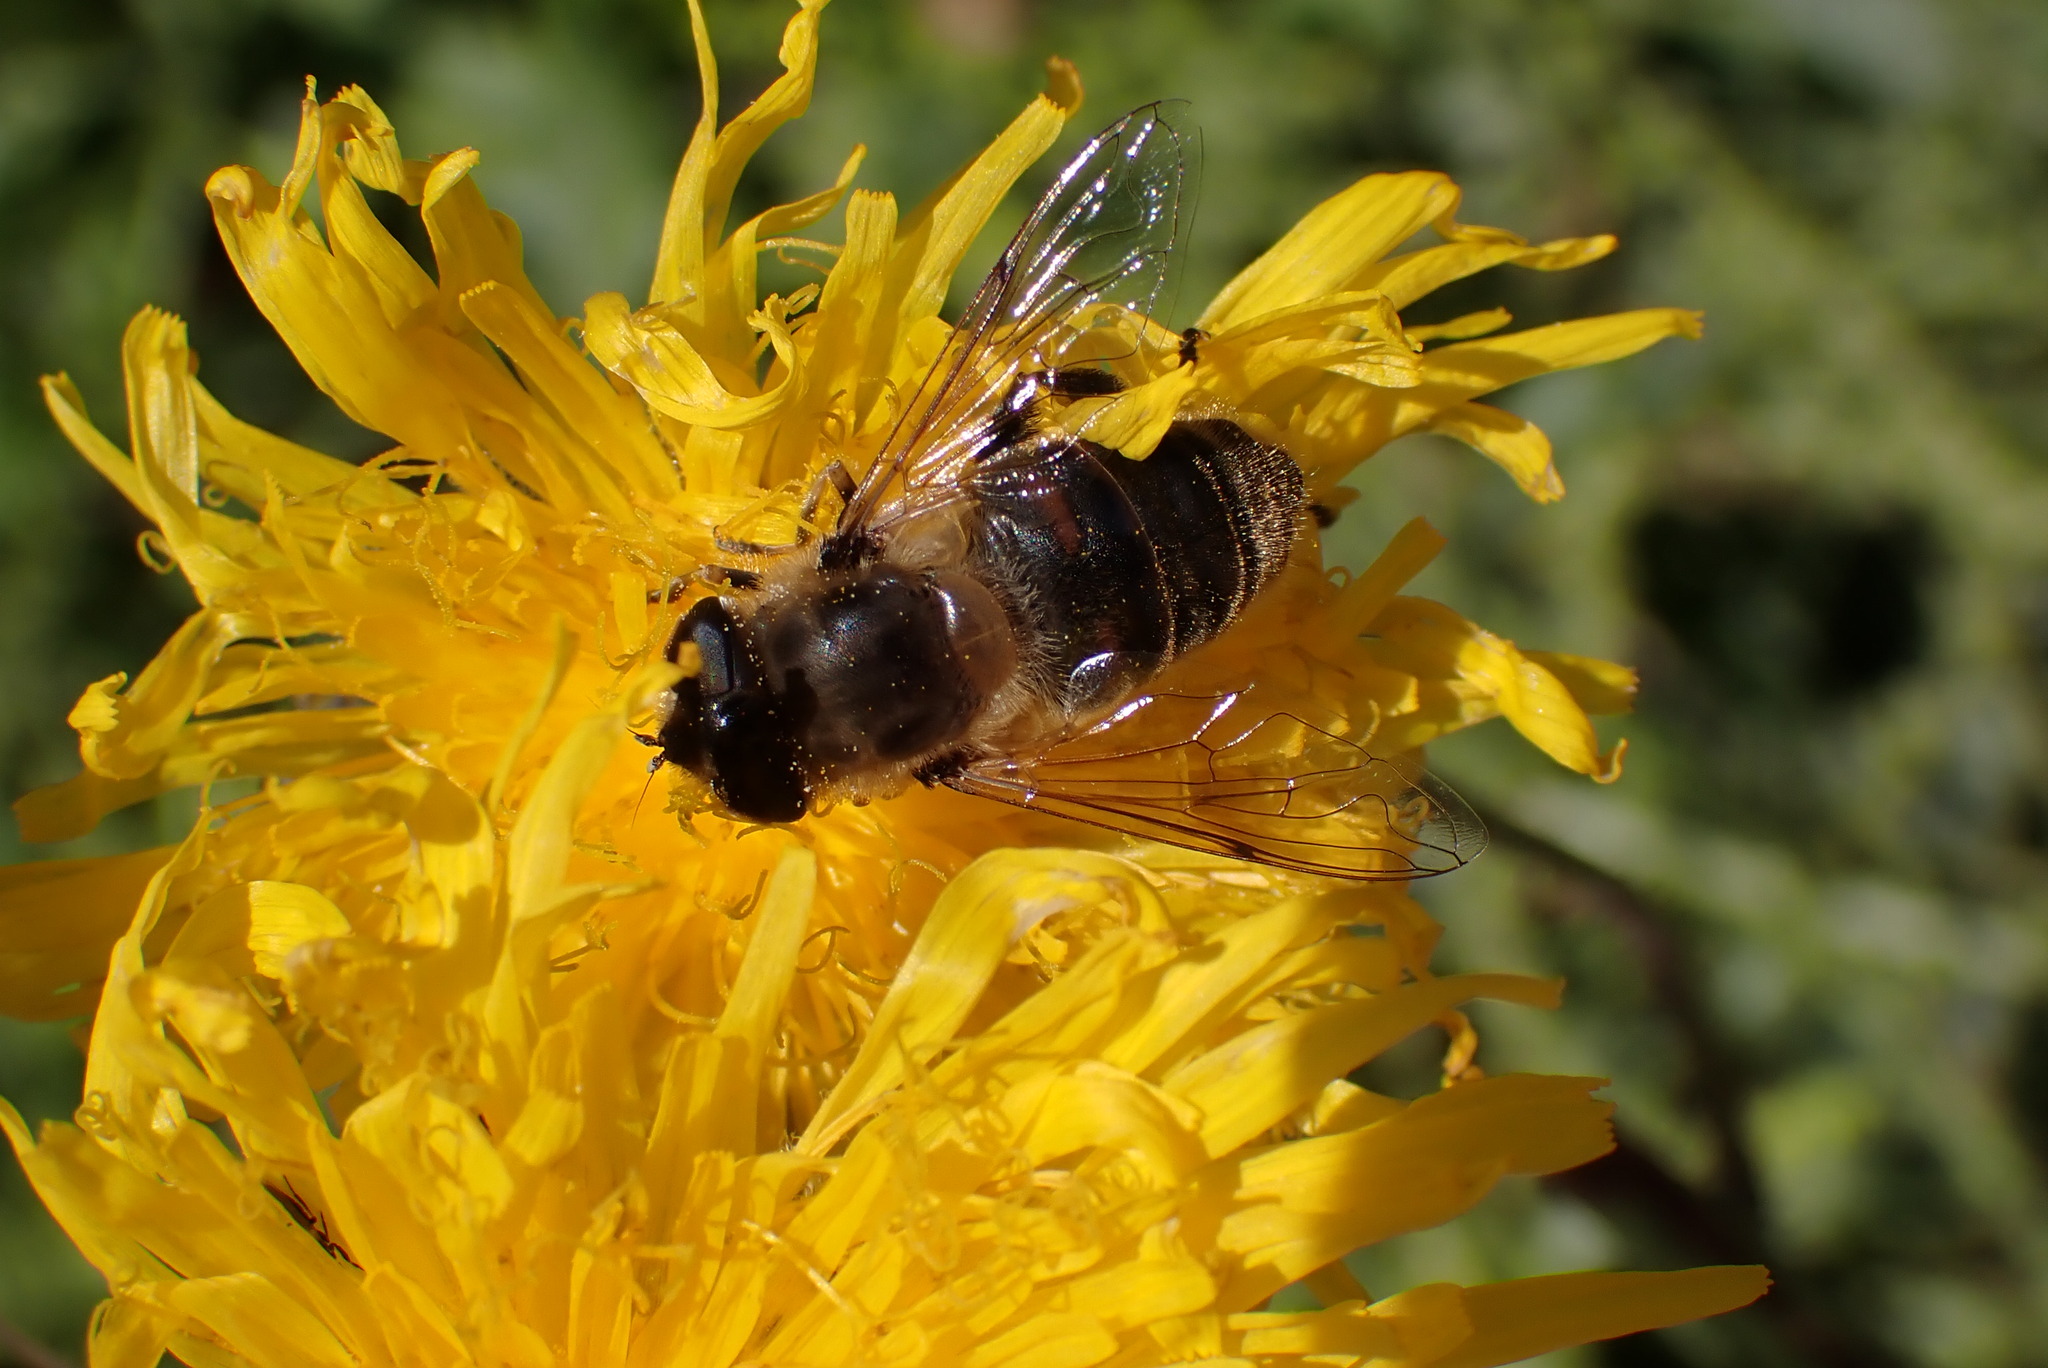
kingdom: Animalia
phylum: Arthropoda
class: Insecta
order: Diptera
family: Syrphidae
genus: Eristalis
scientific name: Eristalis tenax
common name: Drone fly
